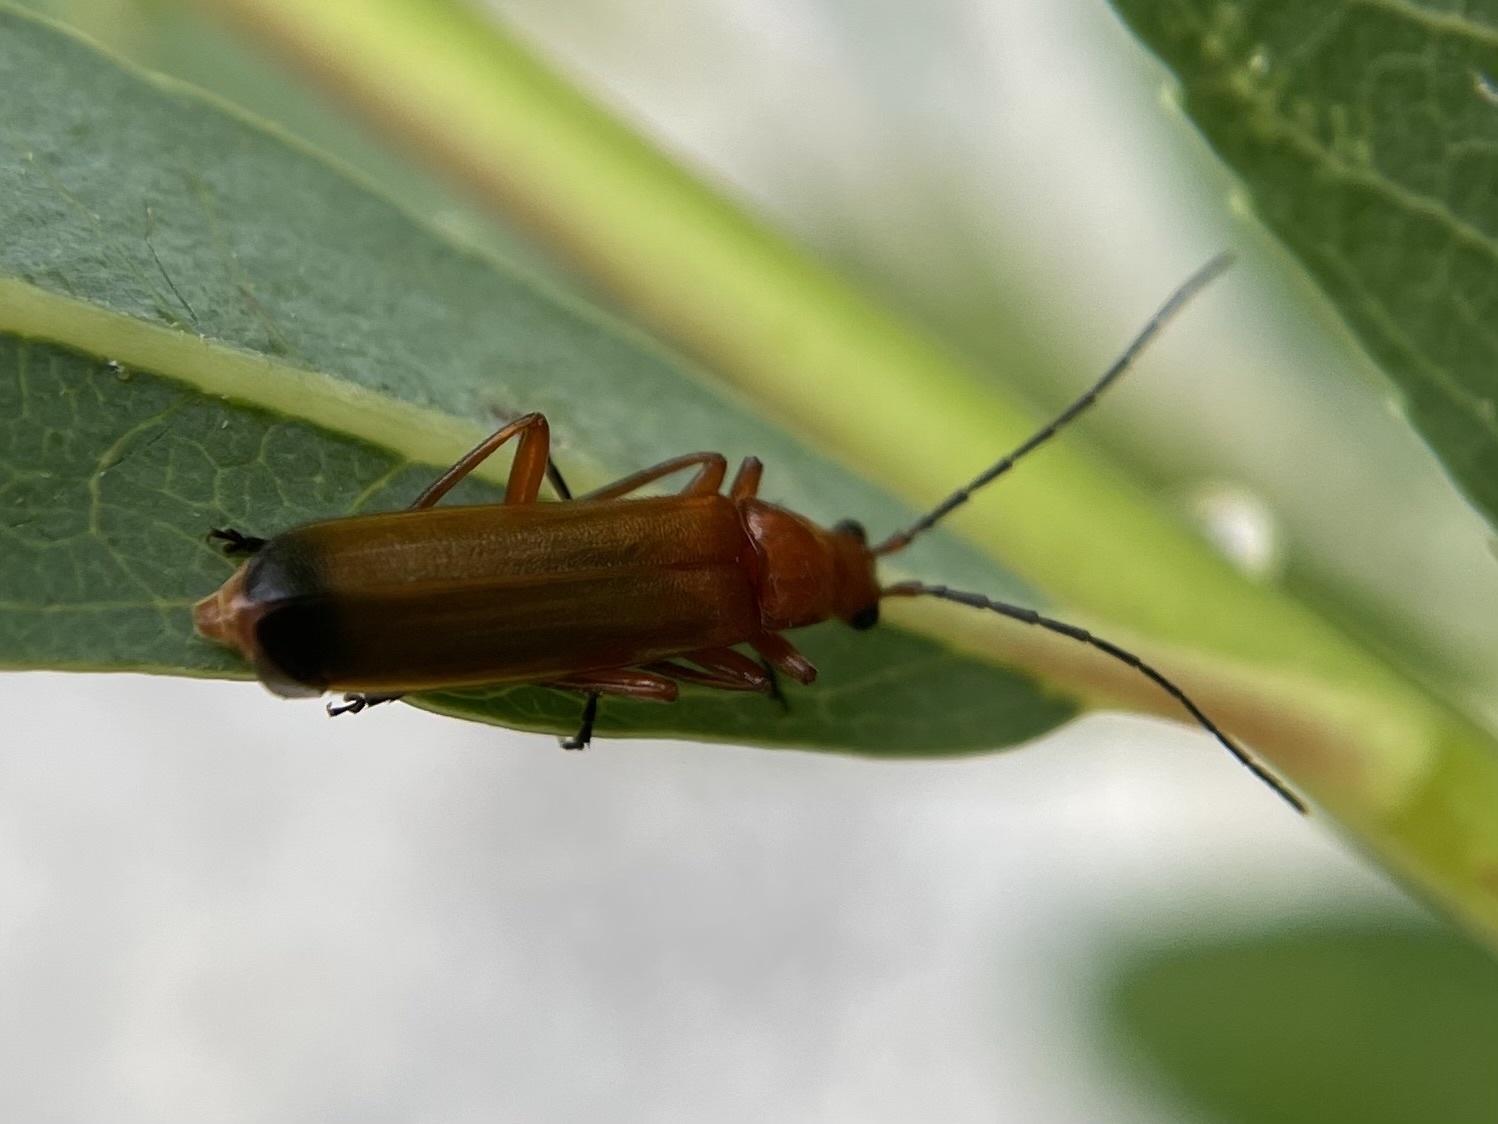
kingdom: Animalia
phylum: Arthropoda
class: Insecta
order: Coleoptera
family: Cantharidae
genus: Rhagonycha
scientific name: Rhagonycha fulva
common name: Common red soldier beetle
